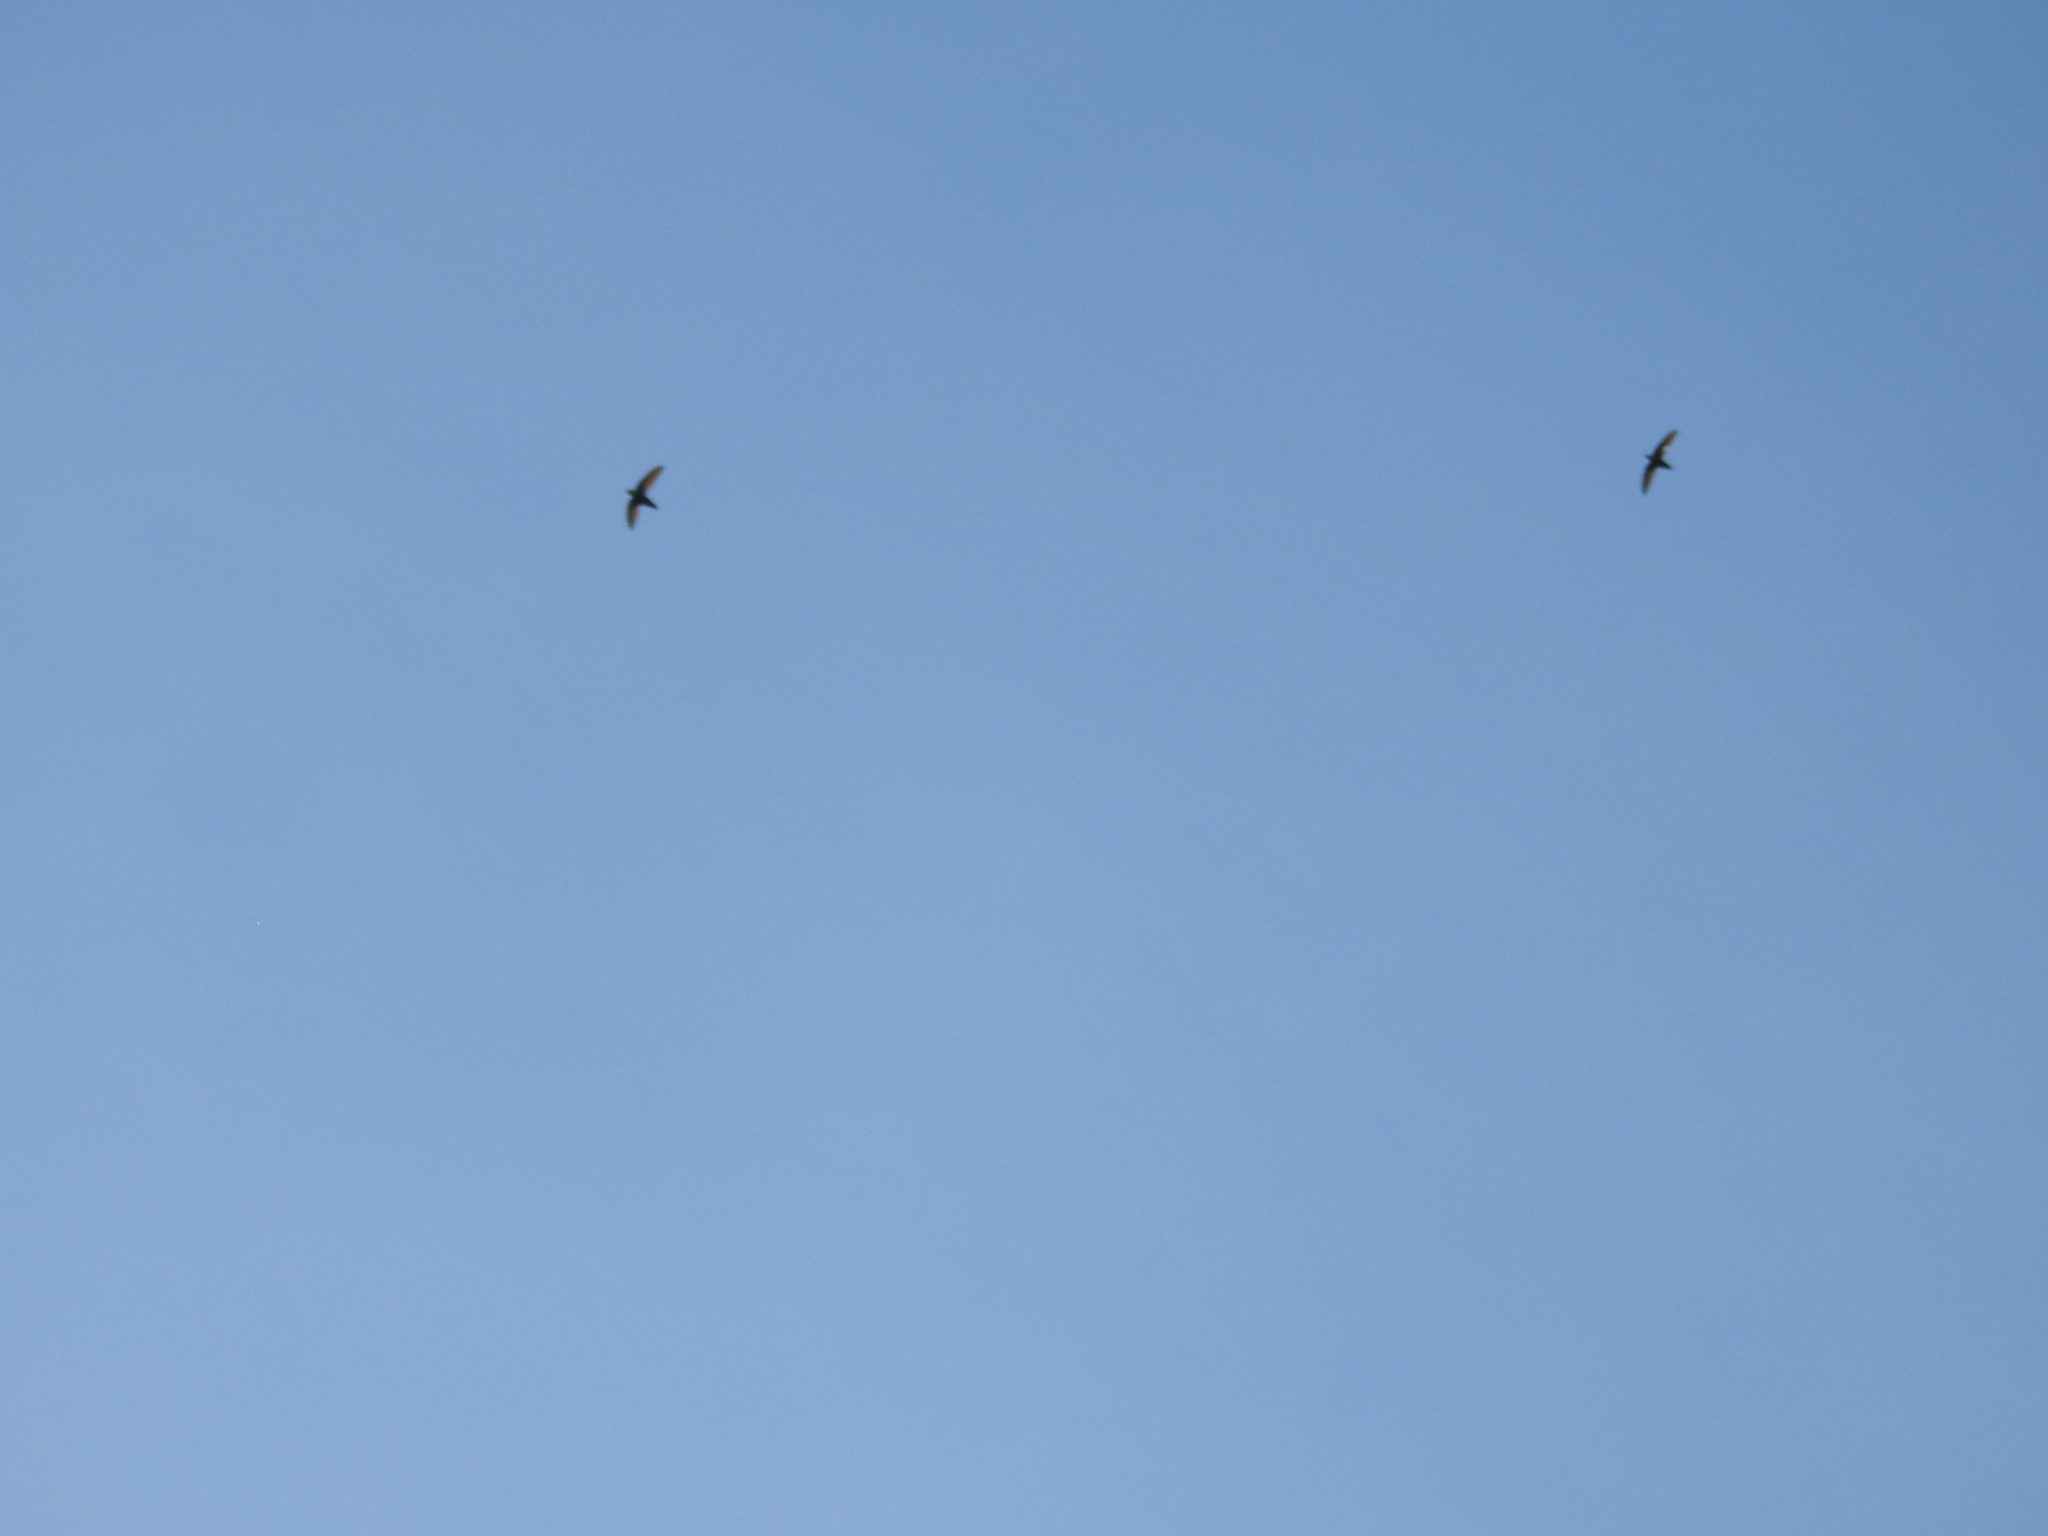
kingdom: Animalia
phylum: Chordata
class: Aves
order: Apodiformes
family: Apodidae
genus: Chaetura
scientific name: Chaetura pelagica
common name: Chimney swift
